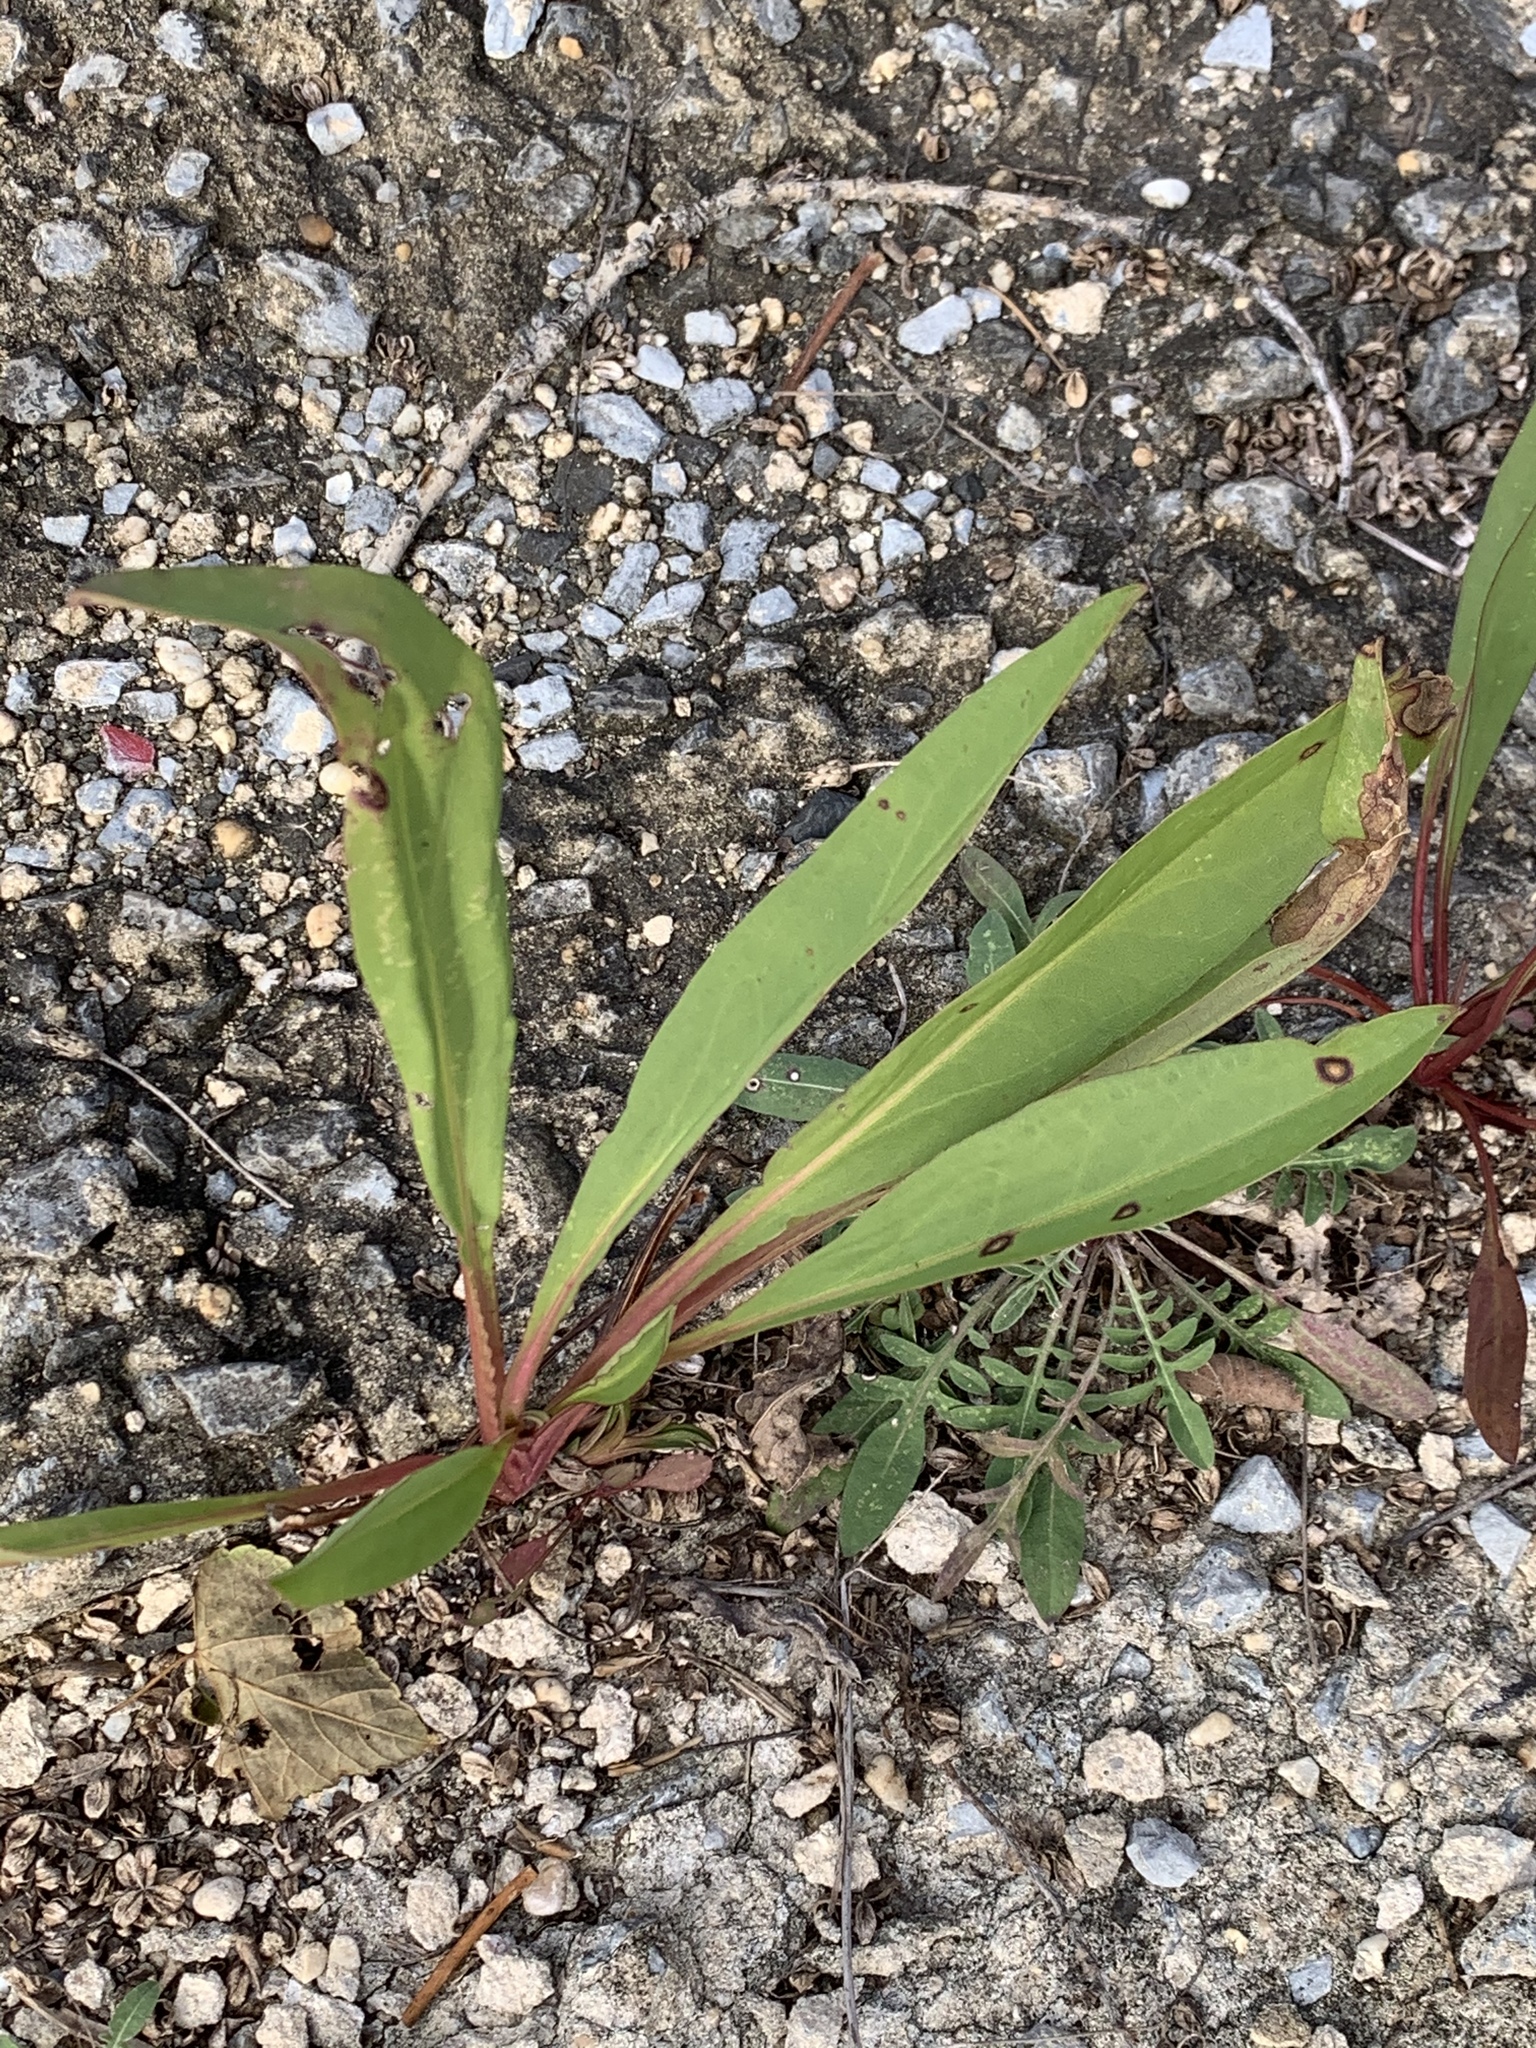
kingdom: Plantae
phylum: Tracheophyta
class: Magnoliopsida
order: Asterales
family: Asteraceae
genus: Solidago
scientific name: Solidago sempervirens
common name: Salt-marsh goldenrod
